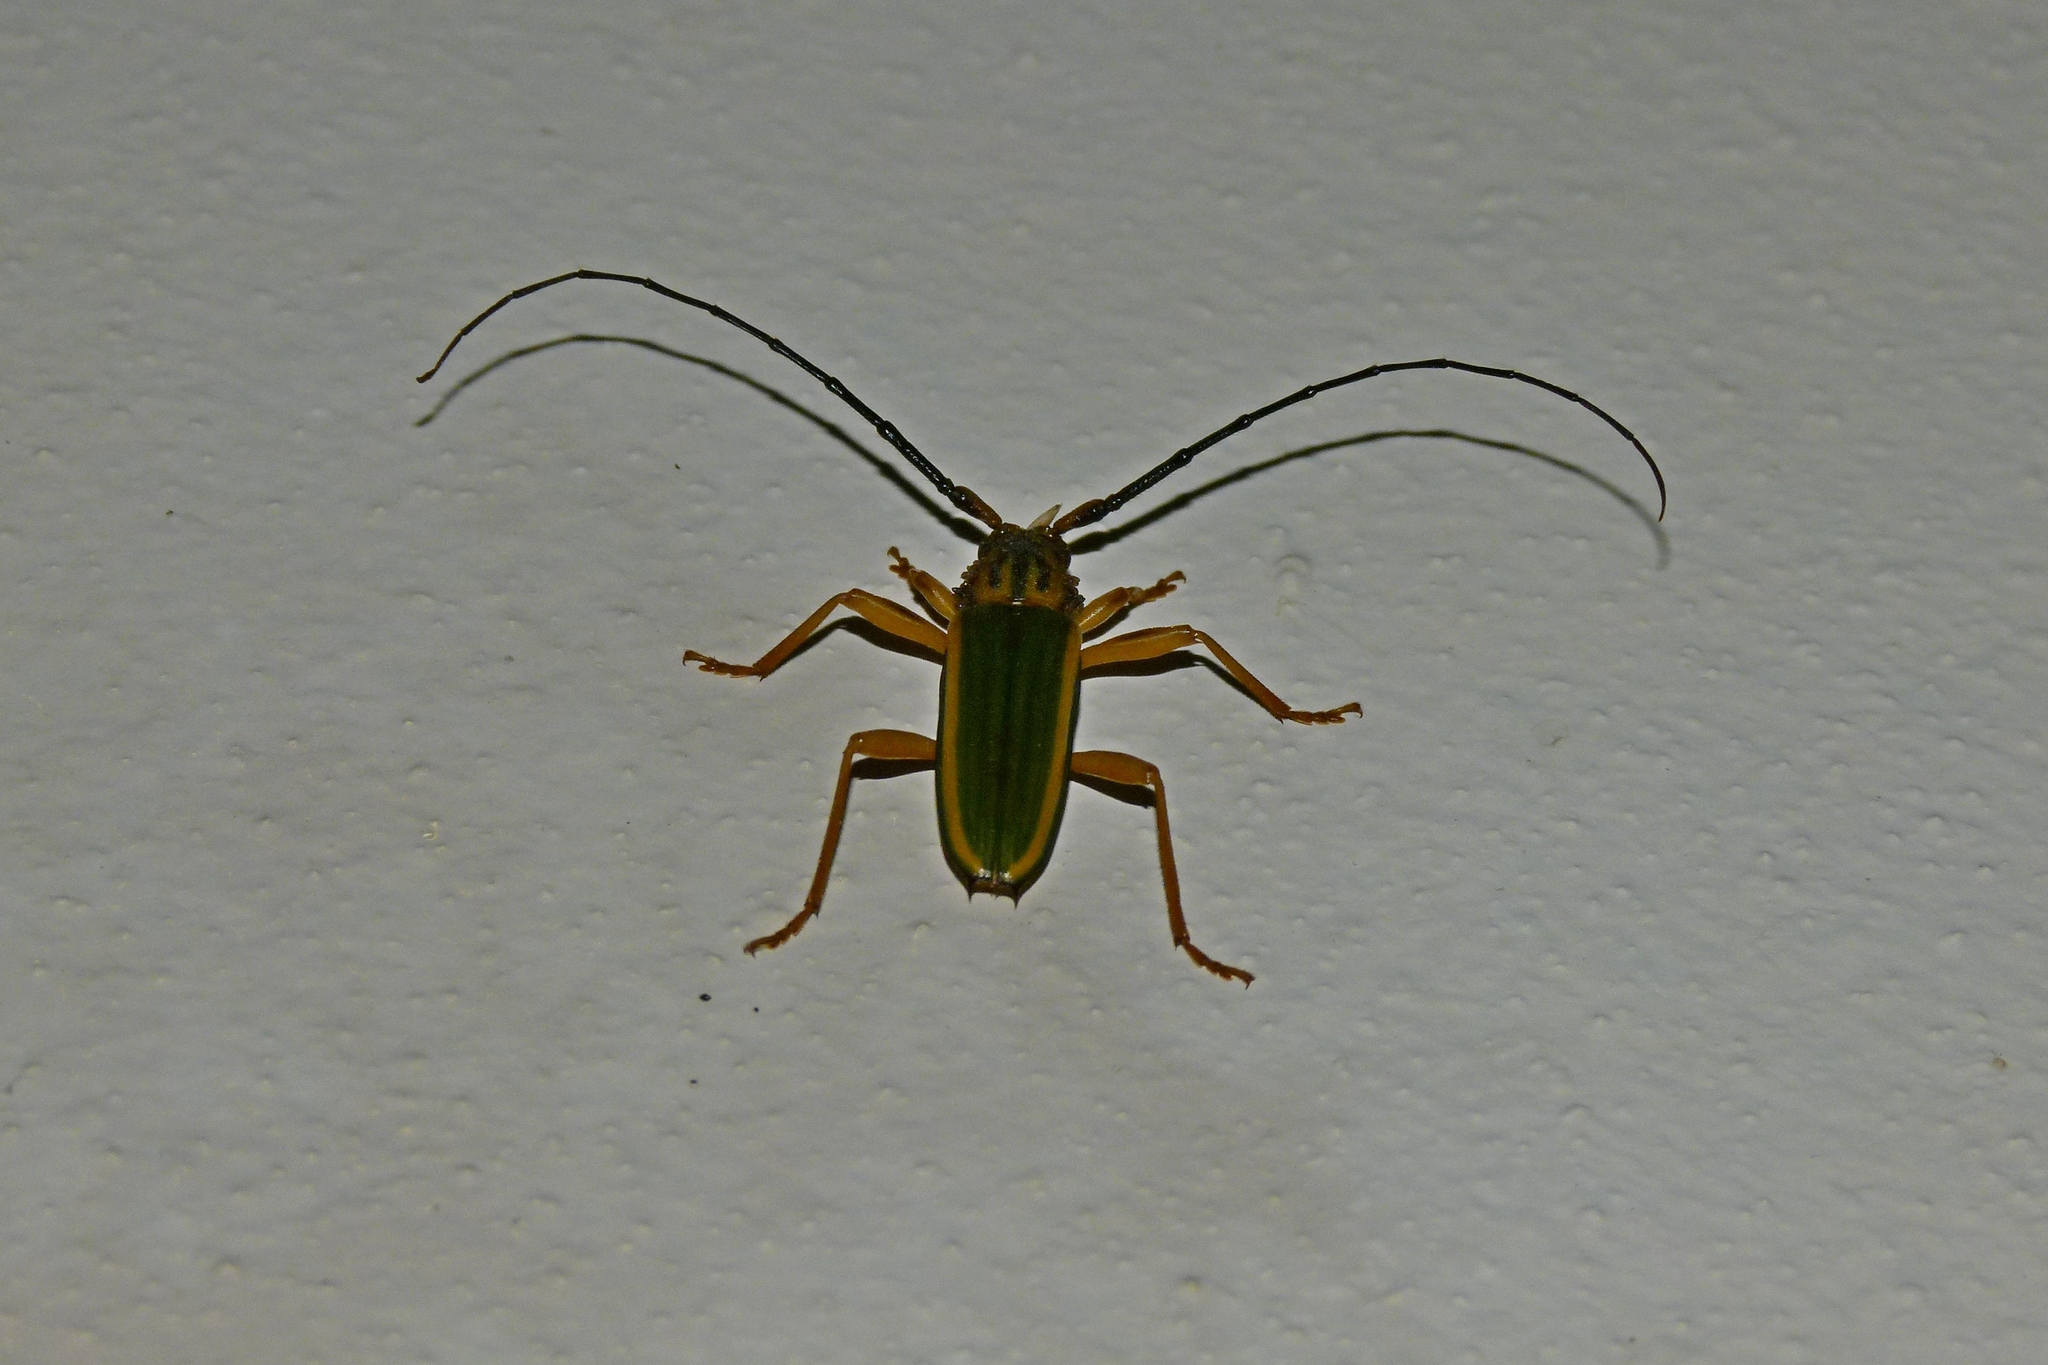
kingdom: Animalia
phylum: Arthropoda
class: Insecta
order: Coleoptera
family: Cerambycidae
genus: Chlorida
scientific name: Chlorida festiva
